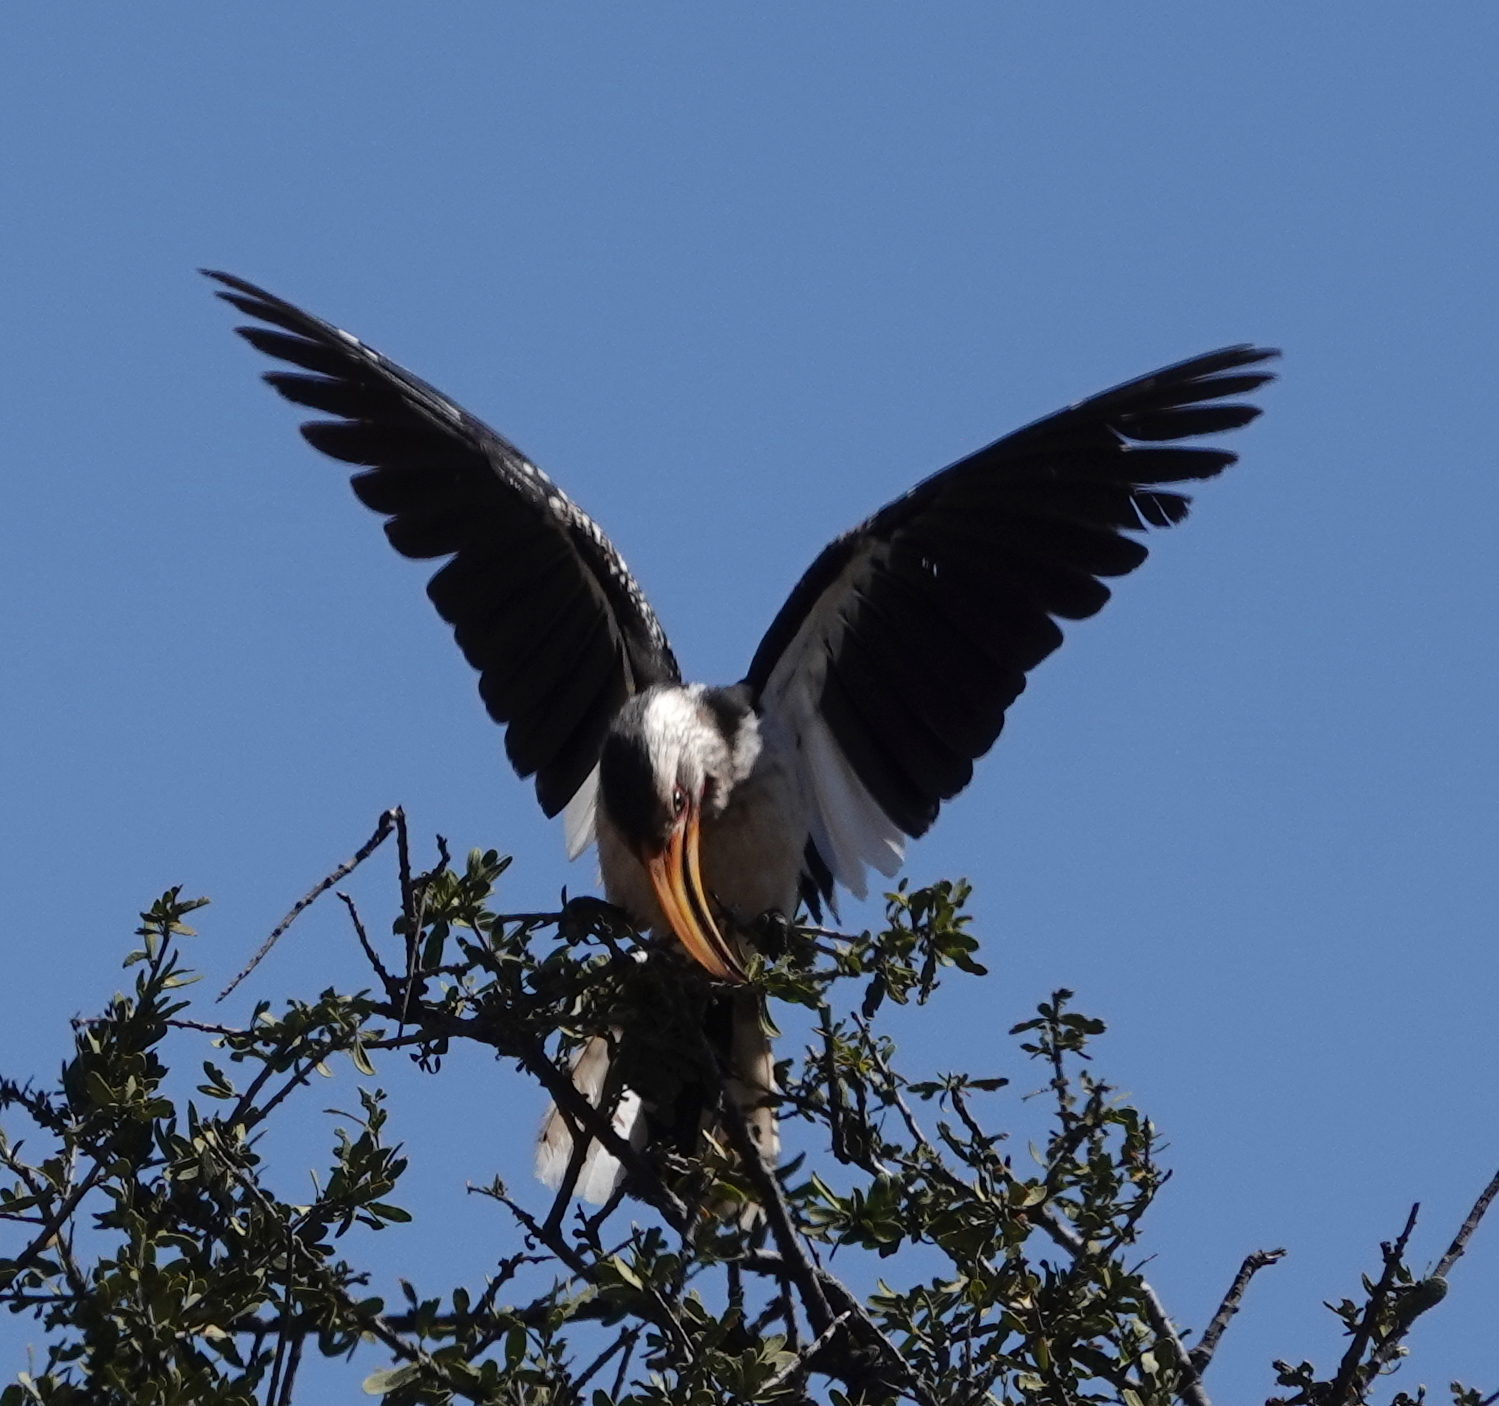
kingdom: Animalia
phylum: Chordata
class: Aves
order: Bucerotiformes
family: Bucerotidae
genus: Tockus
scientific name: Tockus leucomelas
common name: Southern yellow-billed hornbill
